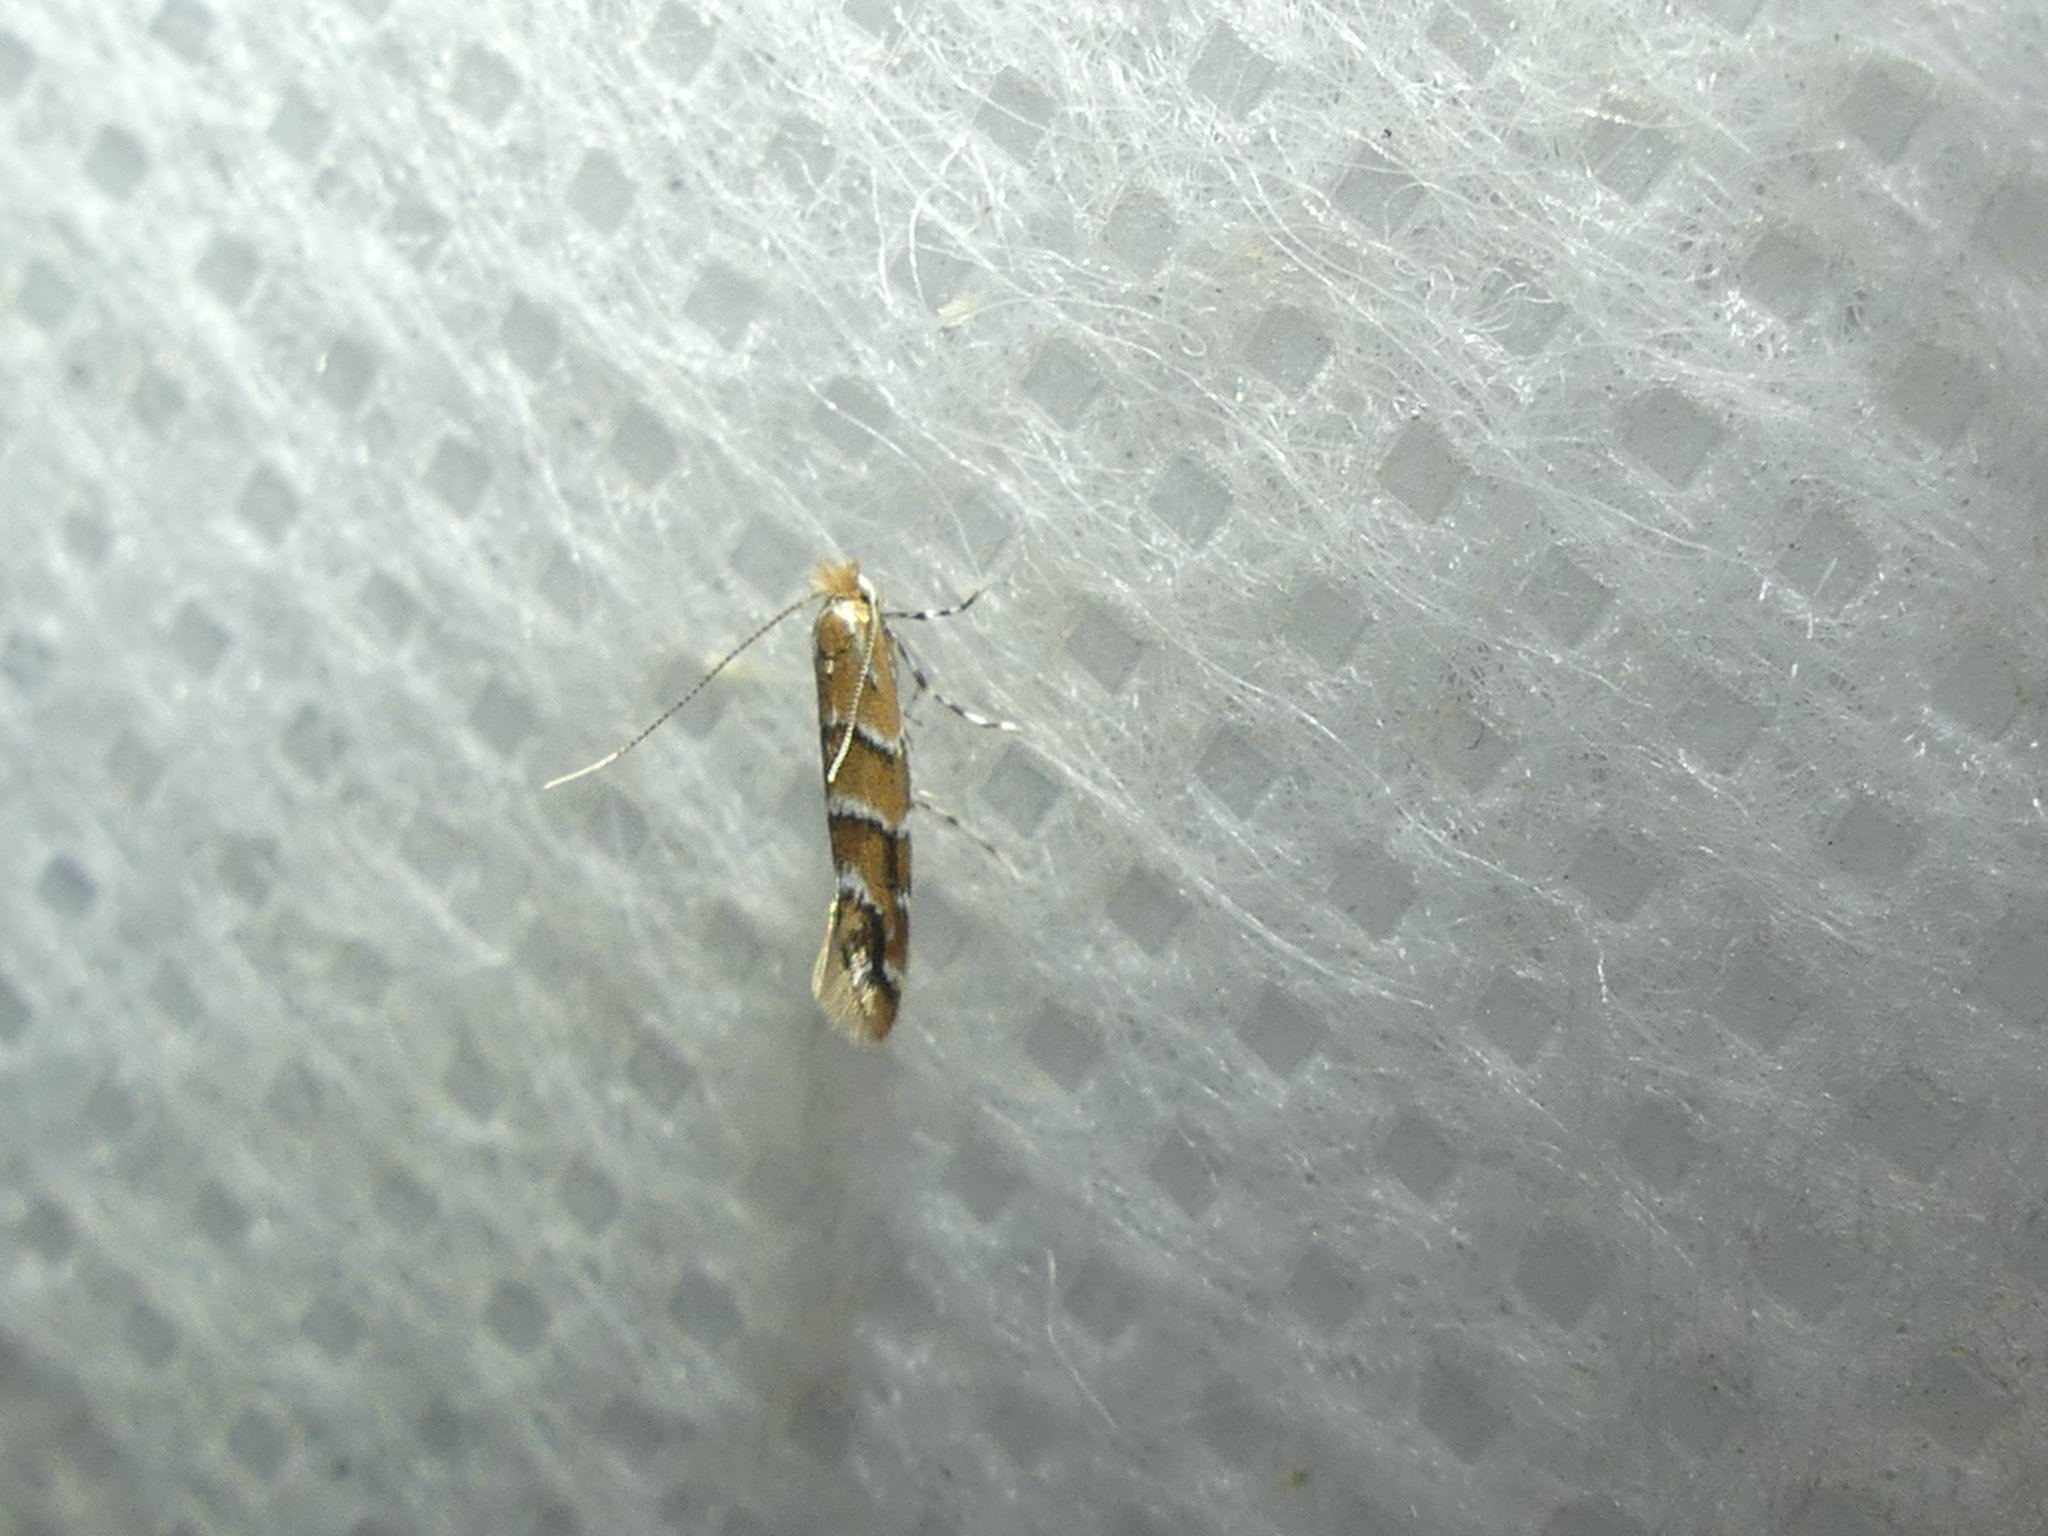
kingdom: Animalia
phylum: Arthropoda
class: Insecta
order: Lepidoptera
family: Gracillariidae
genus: Cameraria
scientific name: Cameraria ohridella
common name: Horse-chestnut leaf-miner
